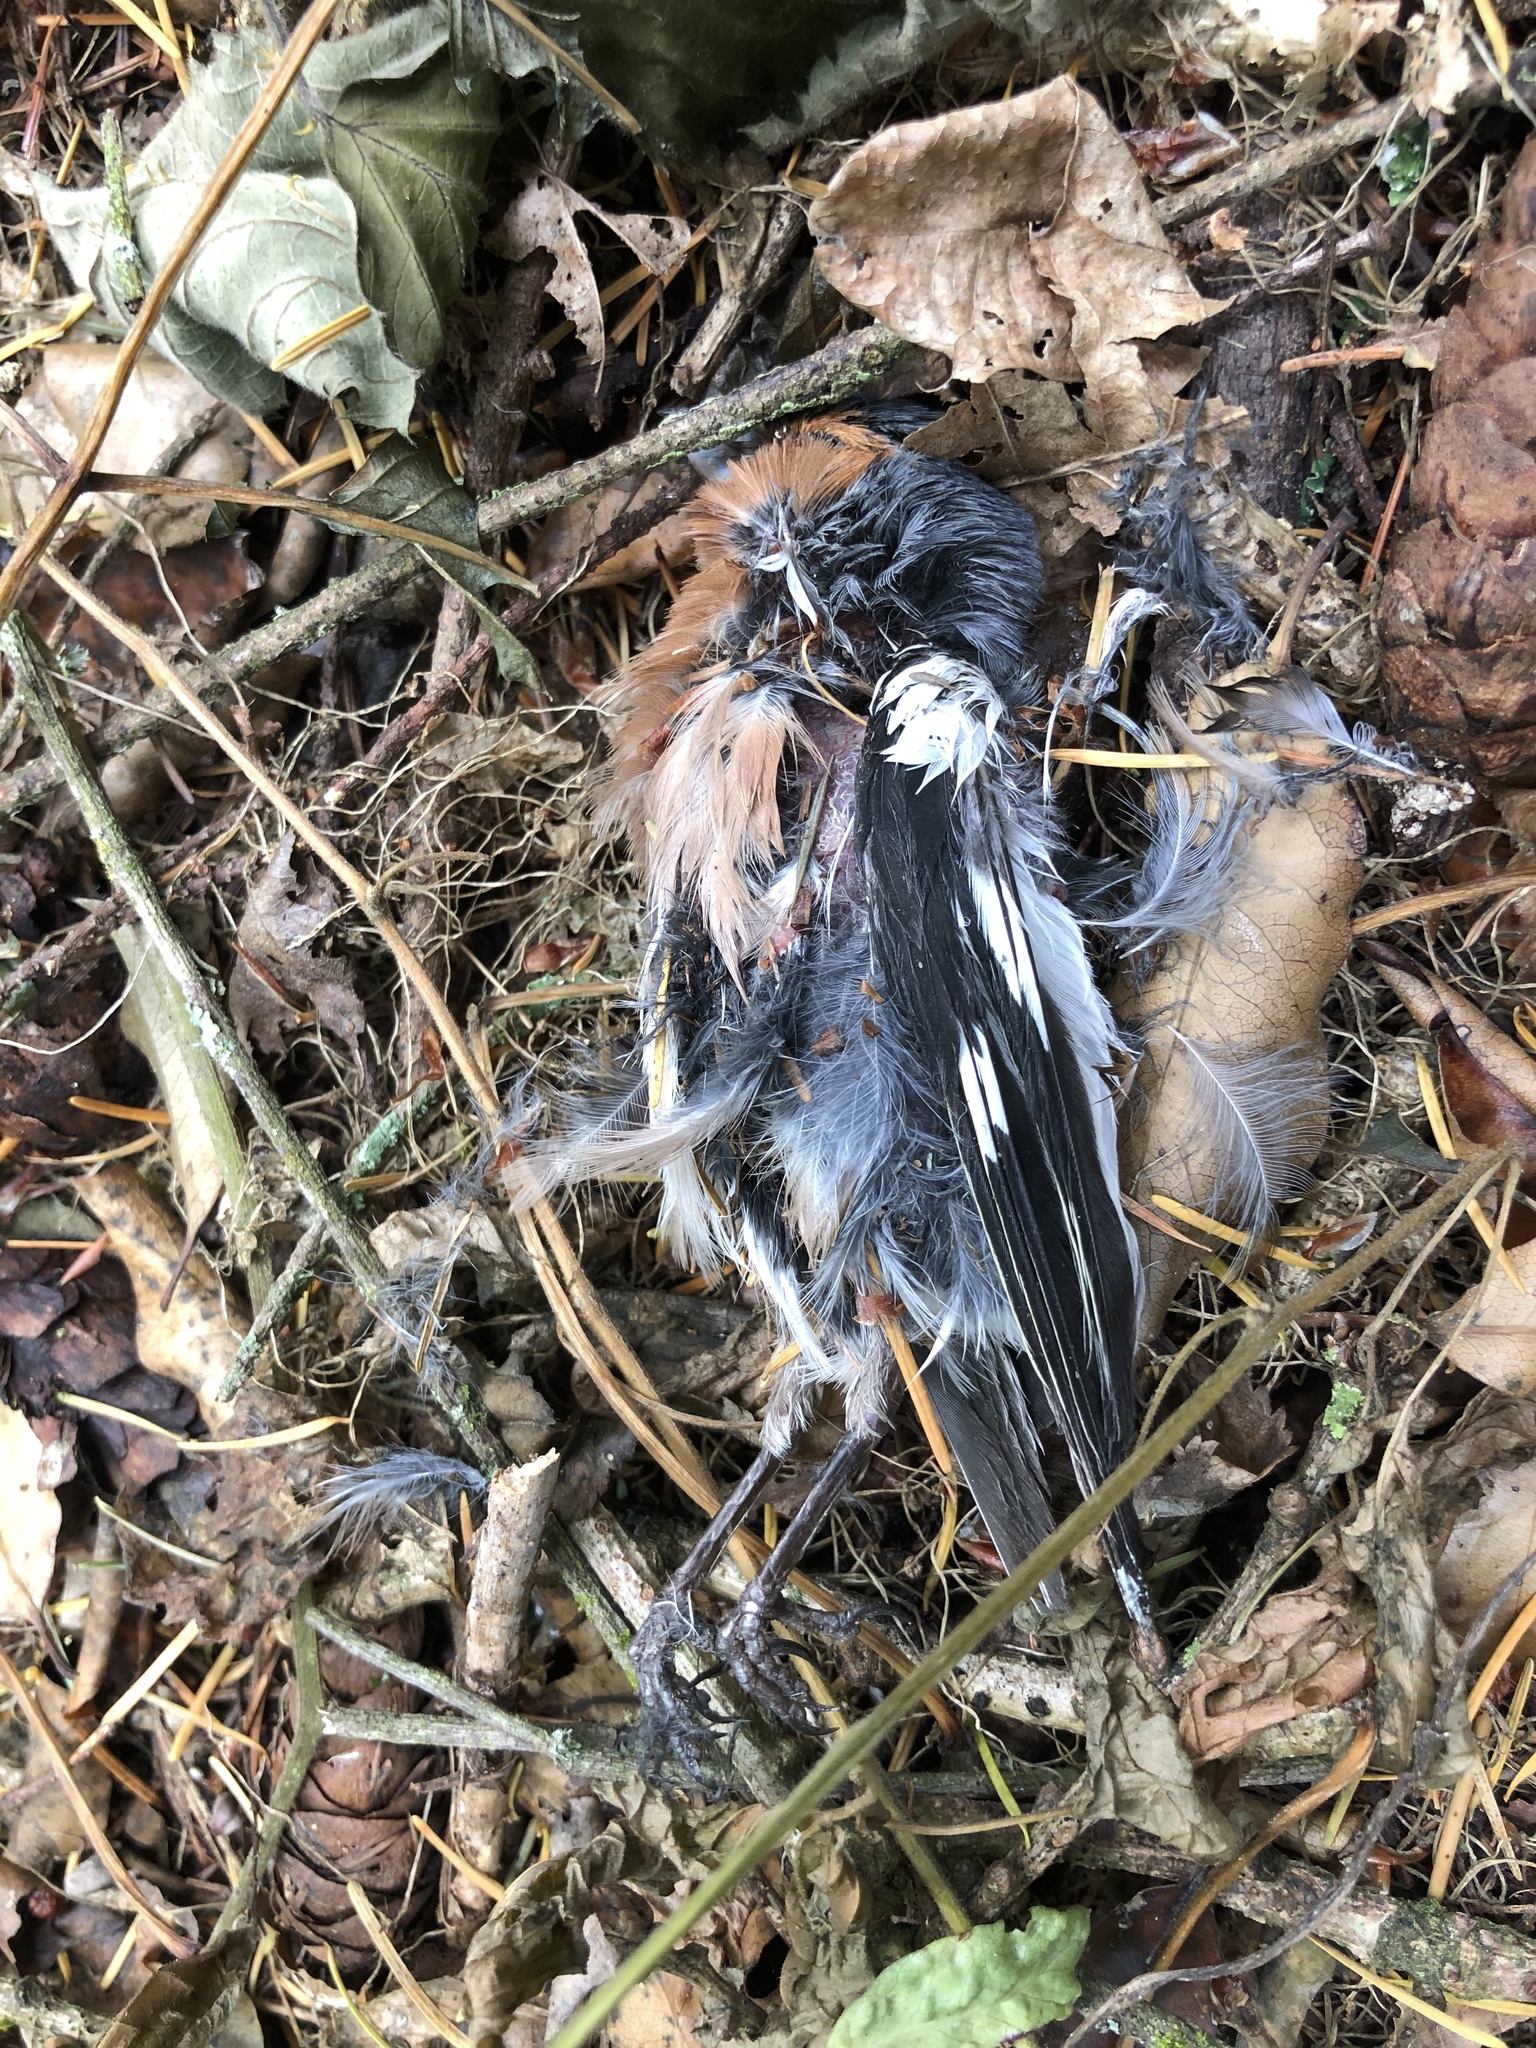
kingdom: Animalia
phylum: Chordata
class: Aves
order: Passeriformes
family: Fringillidae
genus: Fringilla
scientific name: Fringilla coelebs
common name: Common chaffinch
